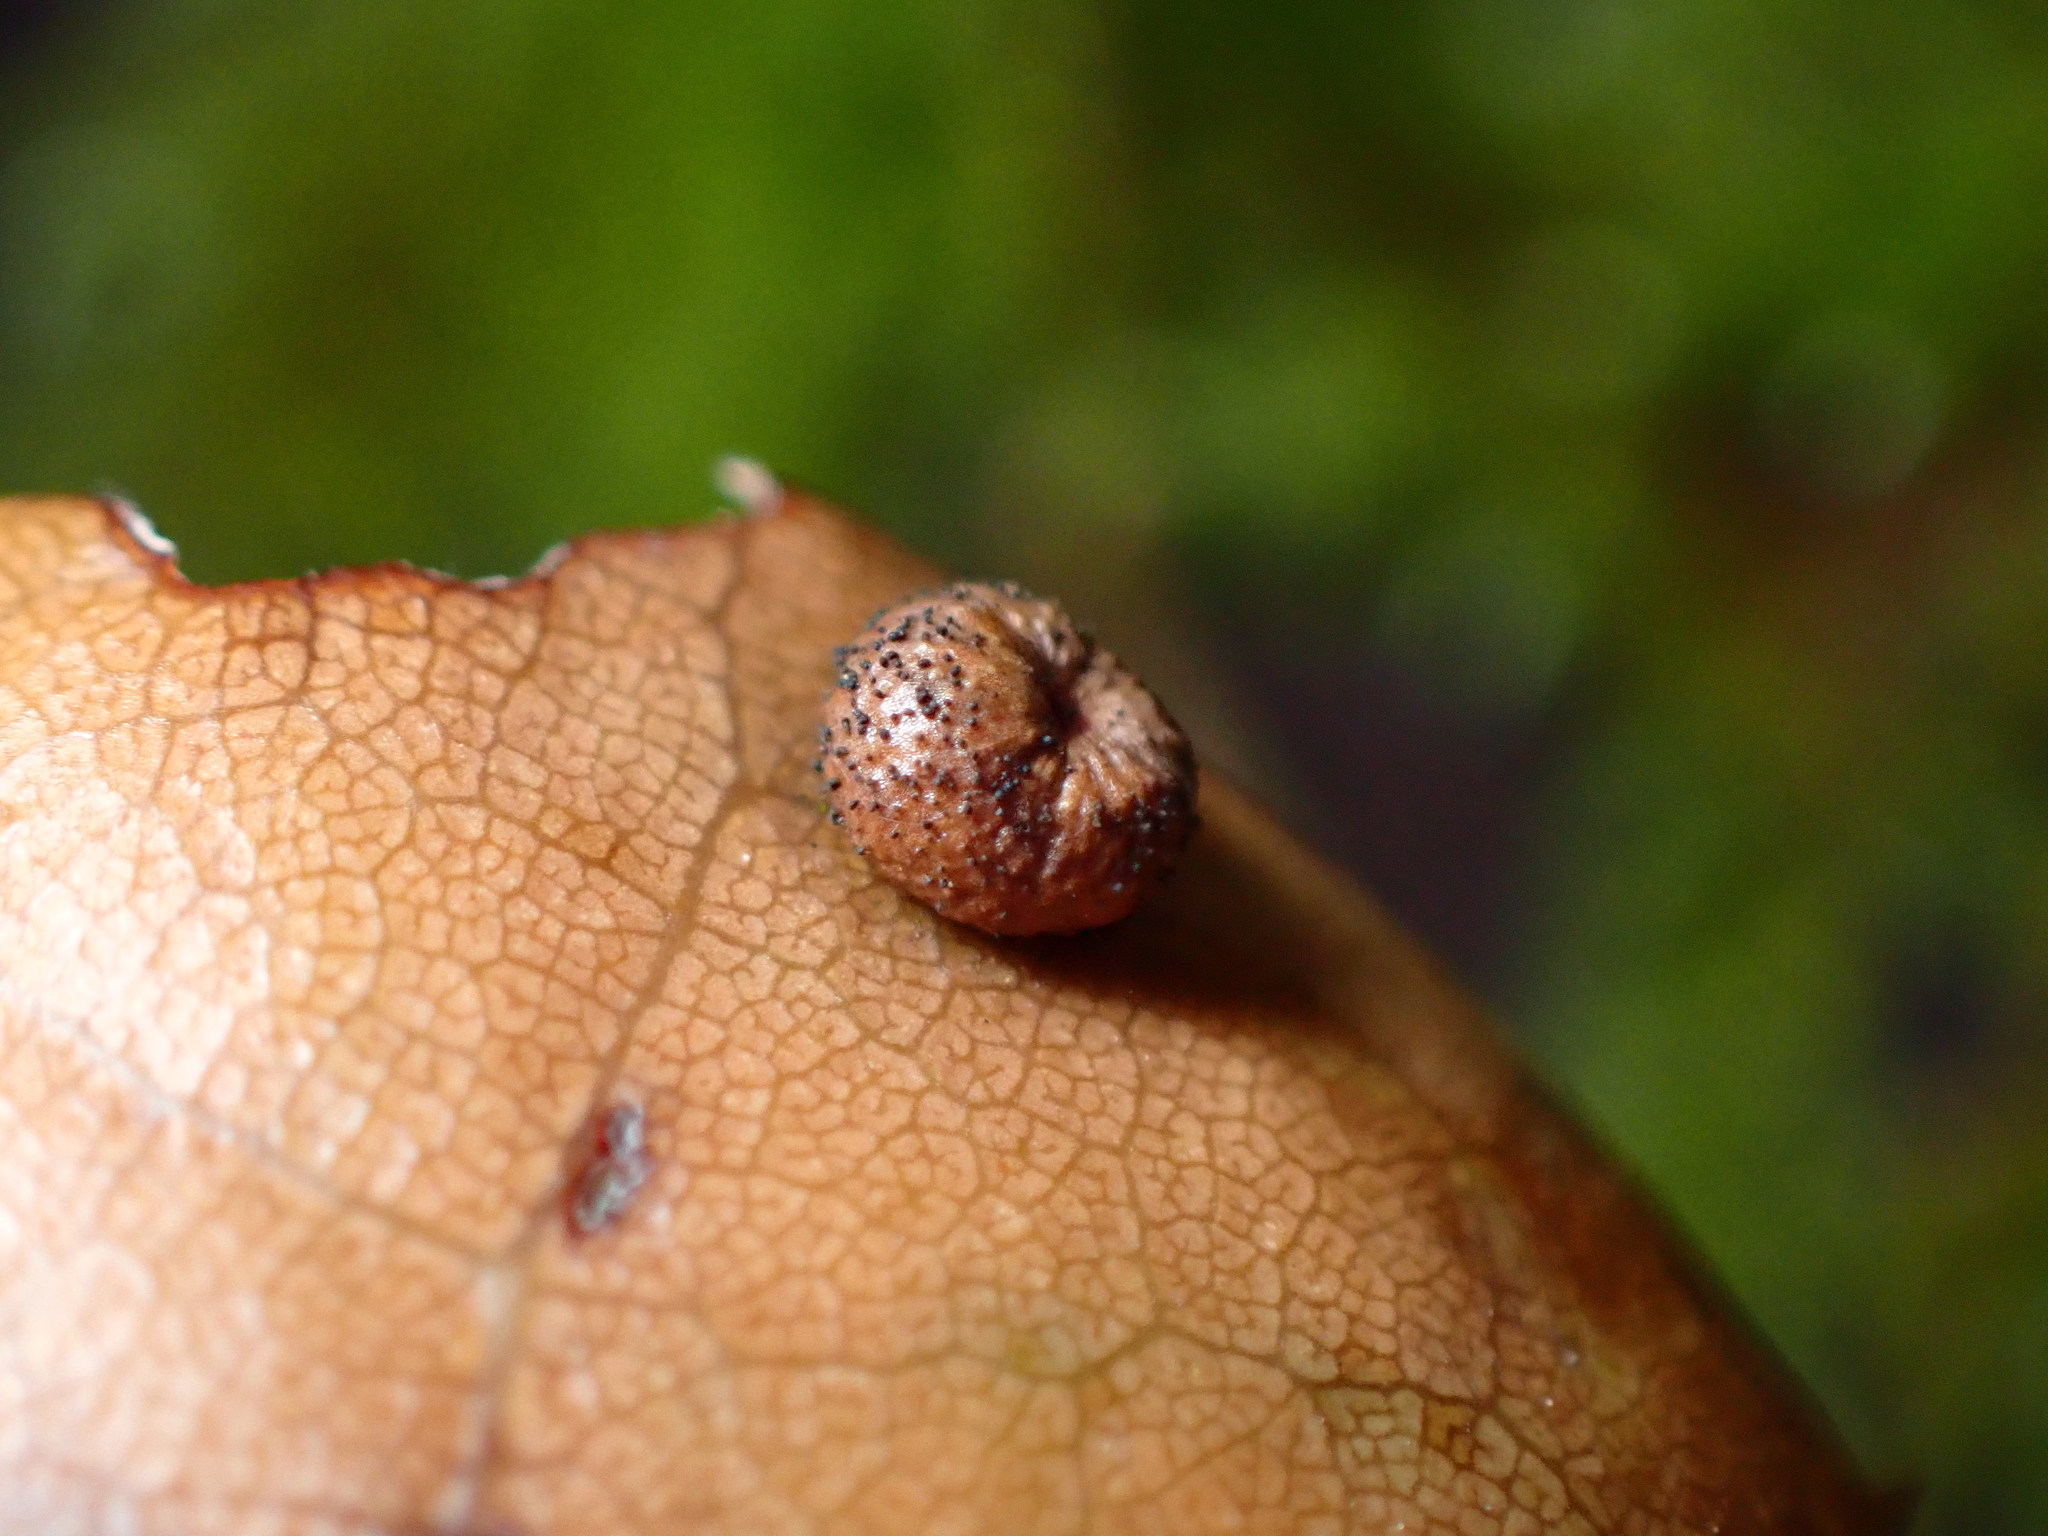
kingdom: Animalia
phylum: Arthropoda
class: Insecta
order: Hymenoptera
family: Cynipidae
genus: Dryocosmus
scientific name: Dryocosmus
